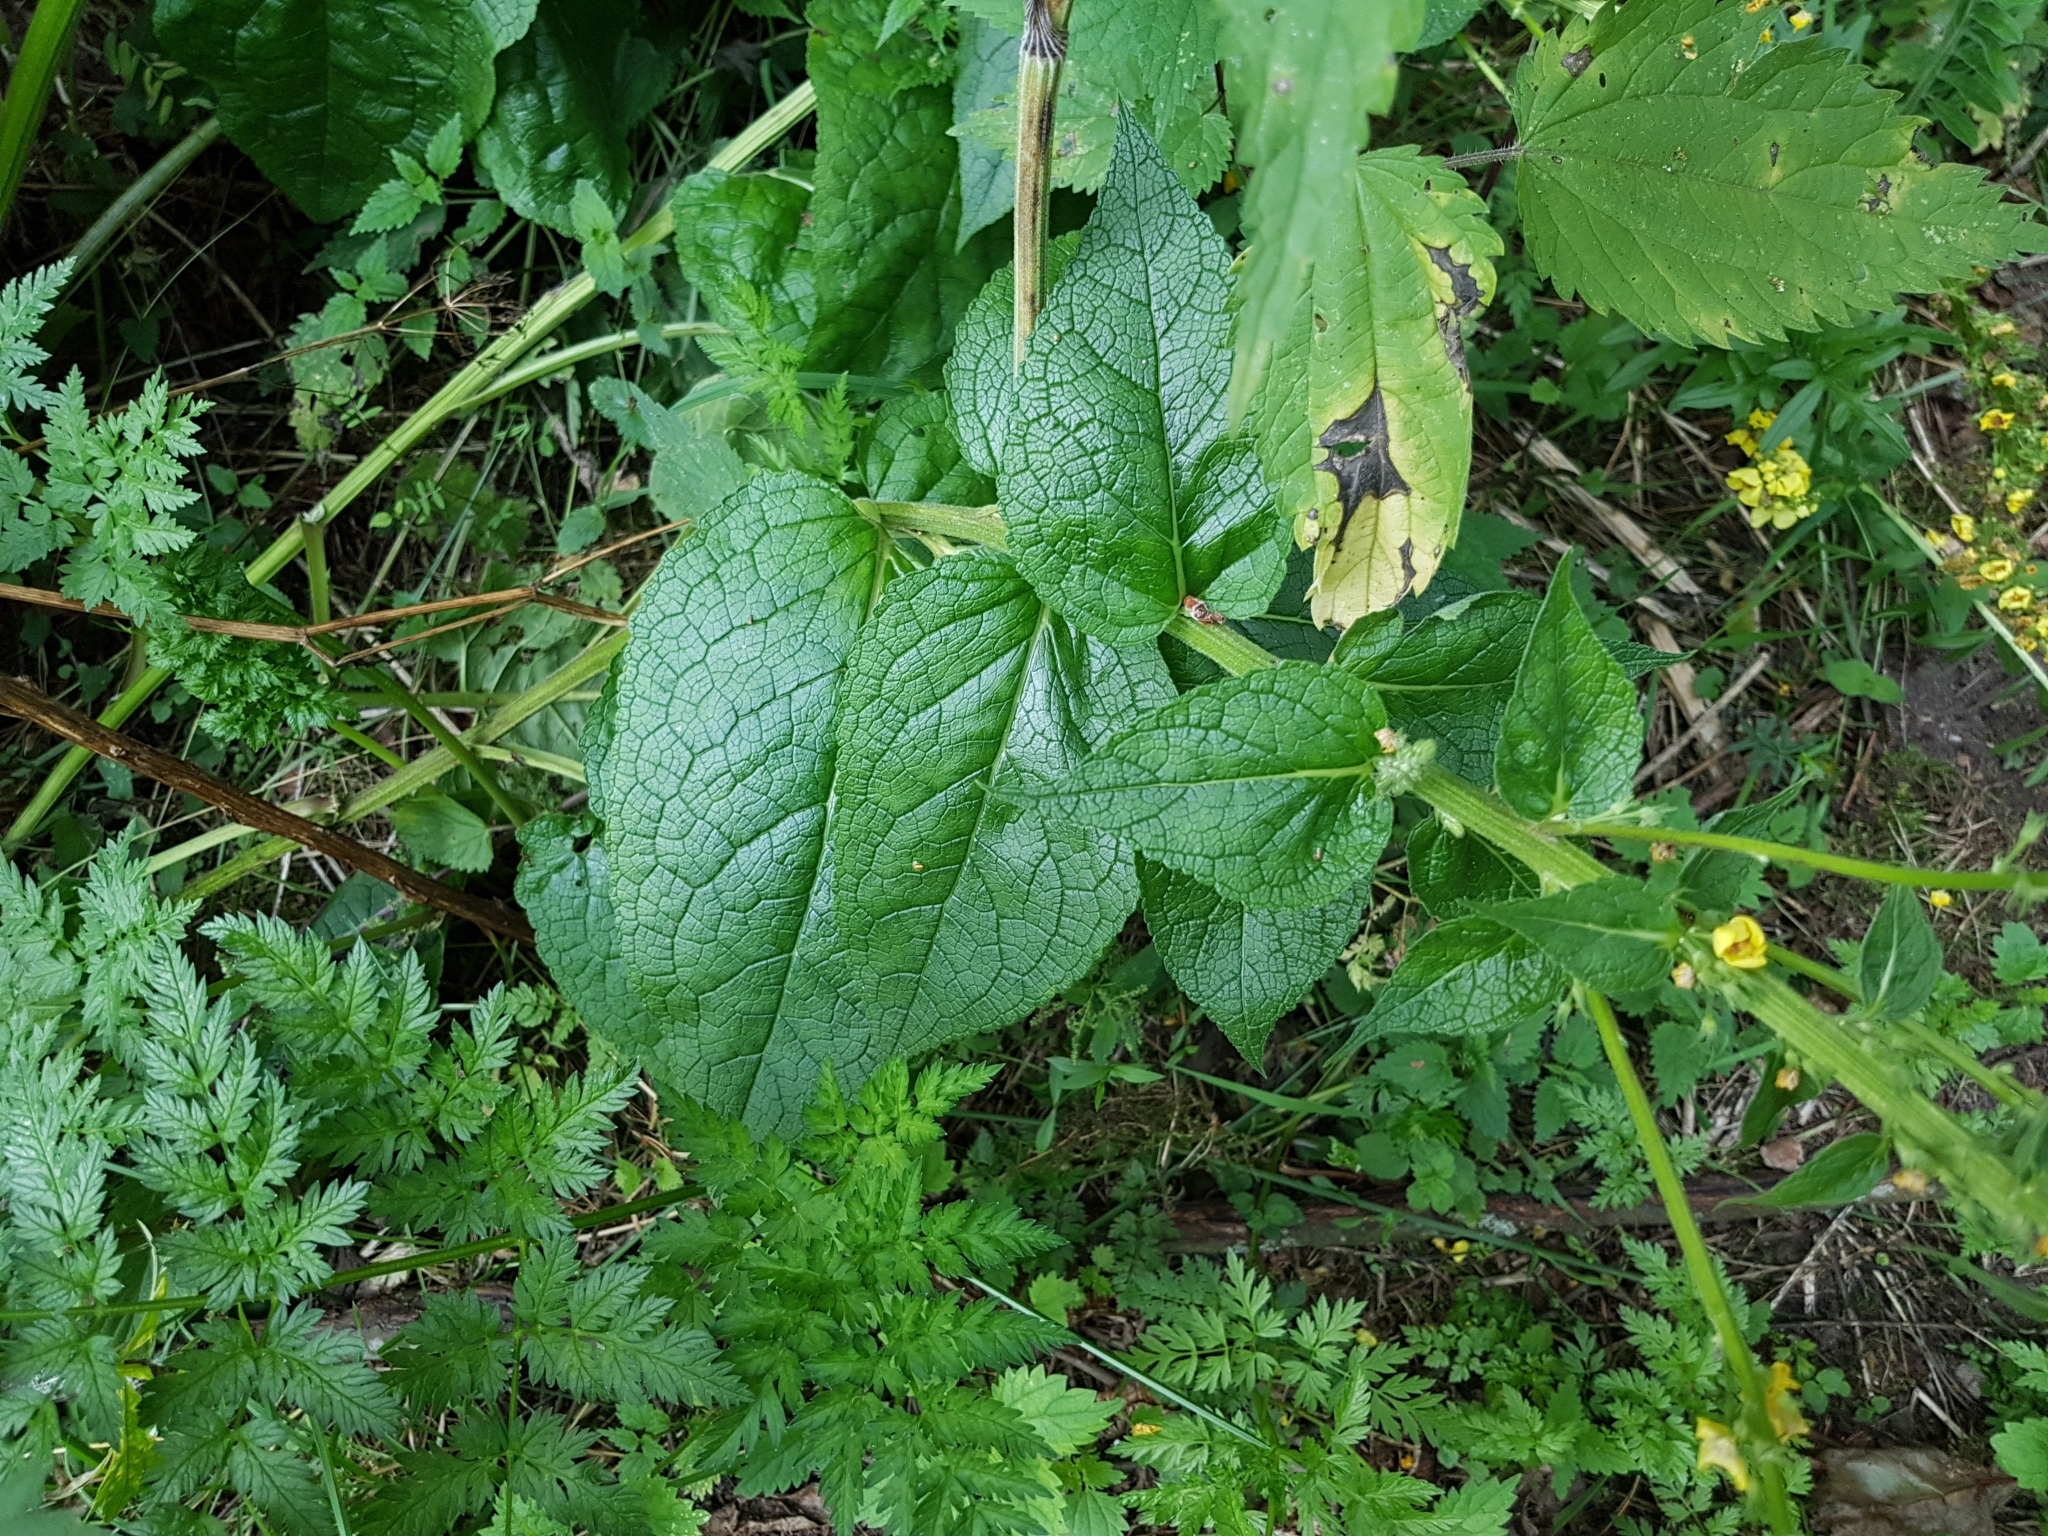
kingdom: Plantae
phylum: Tracheophyta
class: Magnoliopsida
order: Lamiales
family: Scrophulariaceae
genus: Verbascum
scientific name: Verbascum nigrum
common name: Dark mullein
